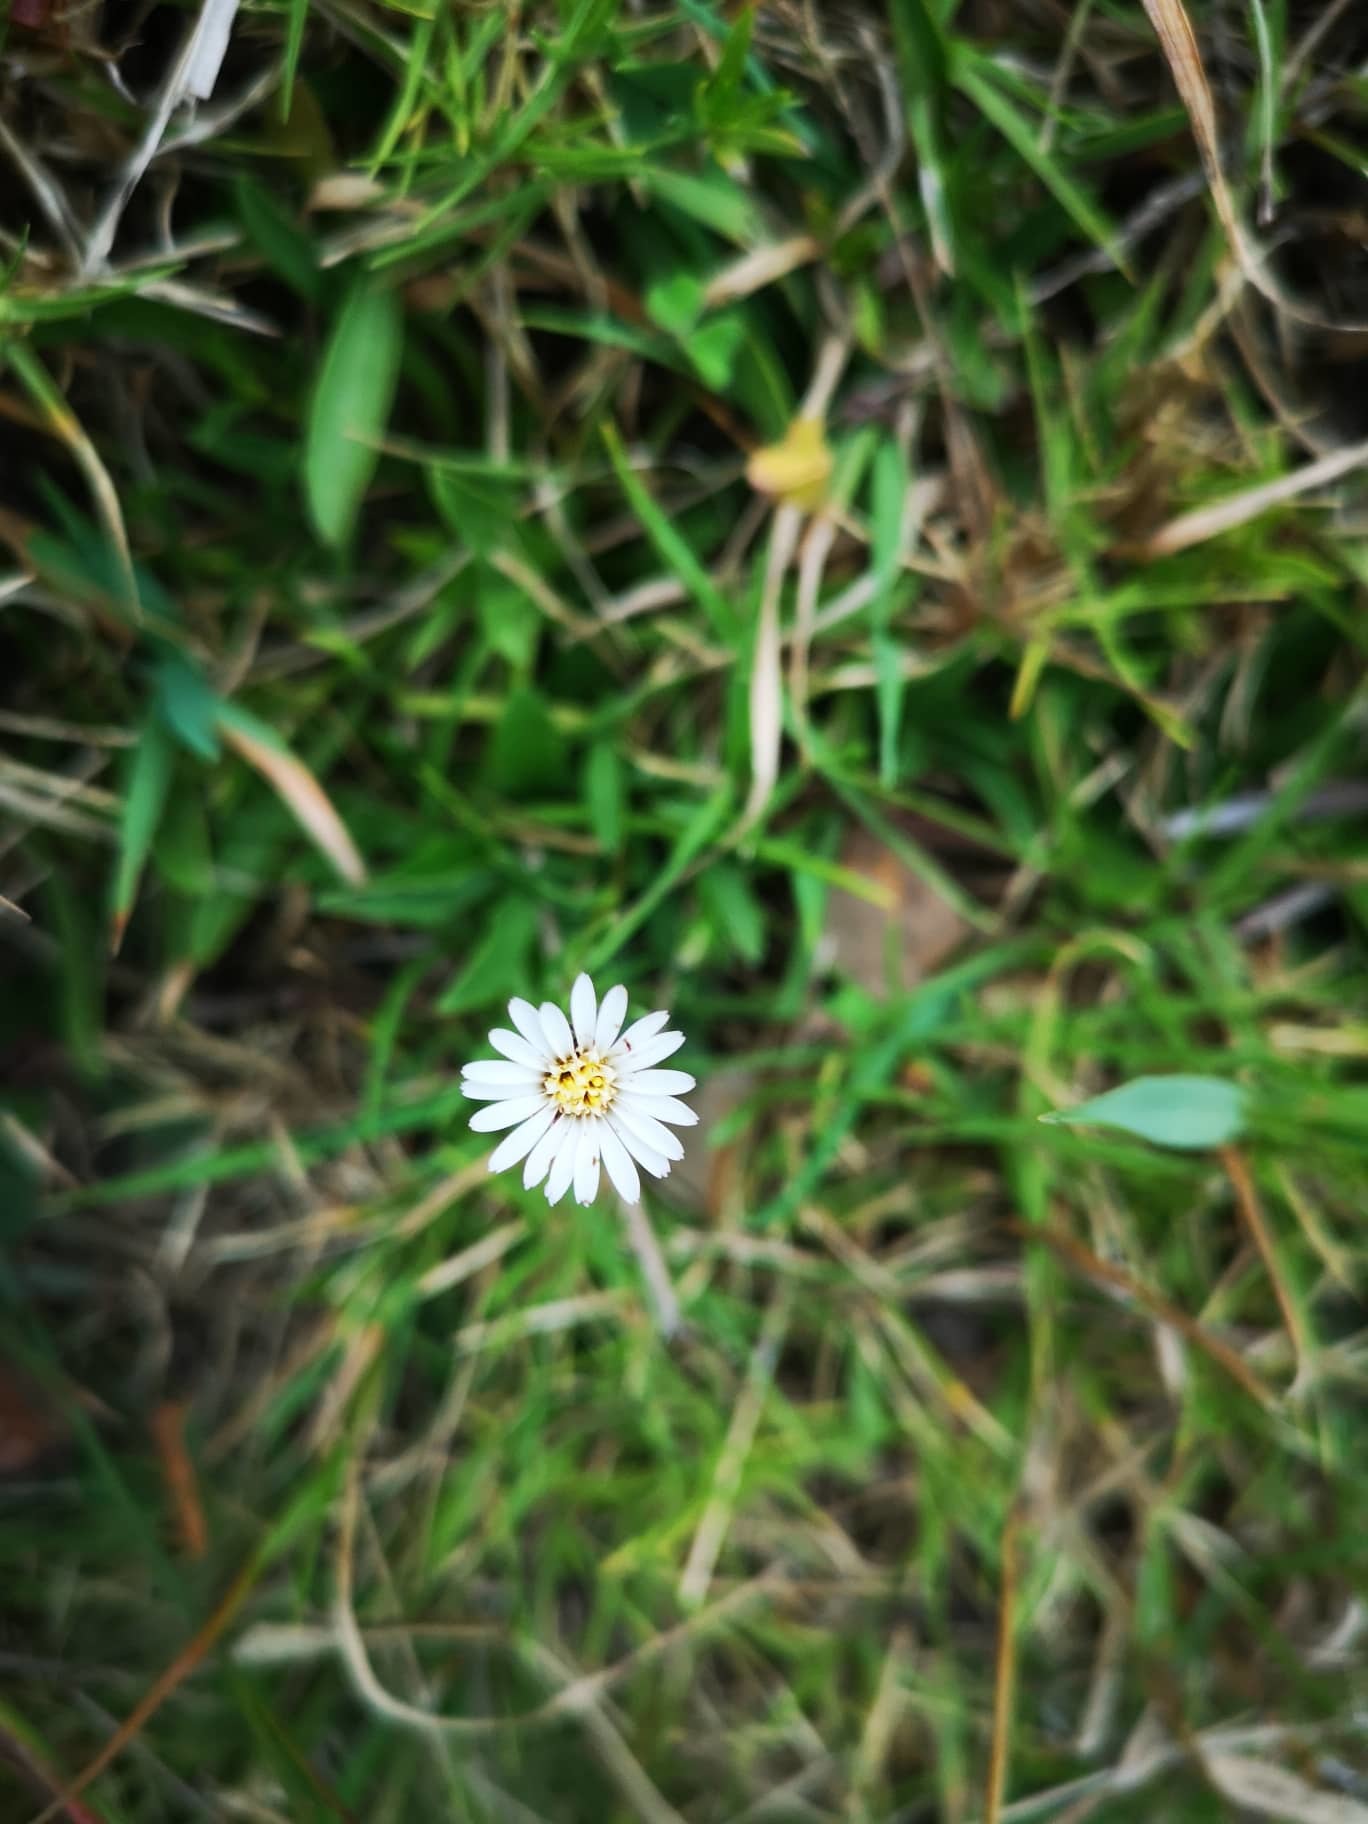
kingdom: Plantae
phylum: Tracheophyta
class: Magnoliopsida
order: Asterales
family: Asteraceae
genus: Noticastrum
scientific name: Noticastrum marginatum
